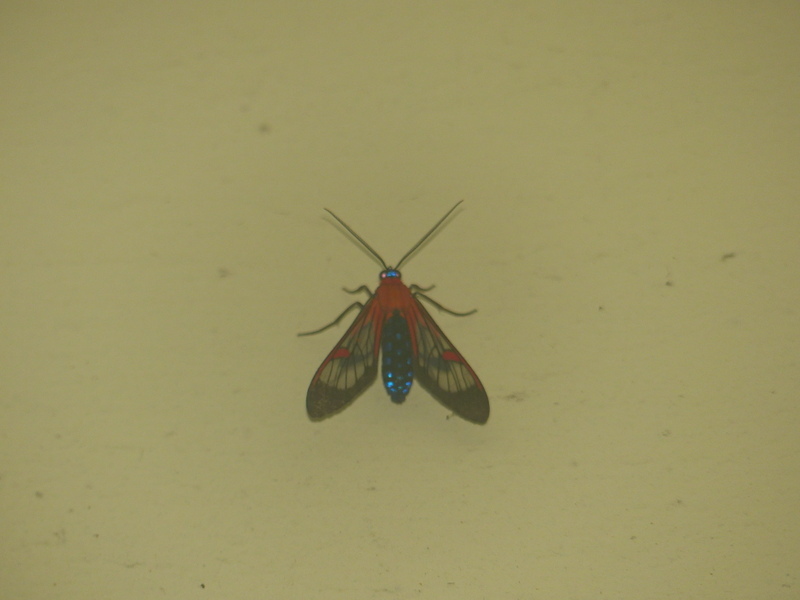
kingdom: Animalia
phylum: Arthropoda
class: Insecta
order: Lepidoptera
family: Erebidae
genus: Lepidoneiva
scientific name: Lepidoneiva teuthras
